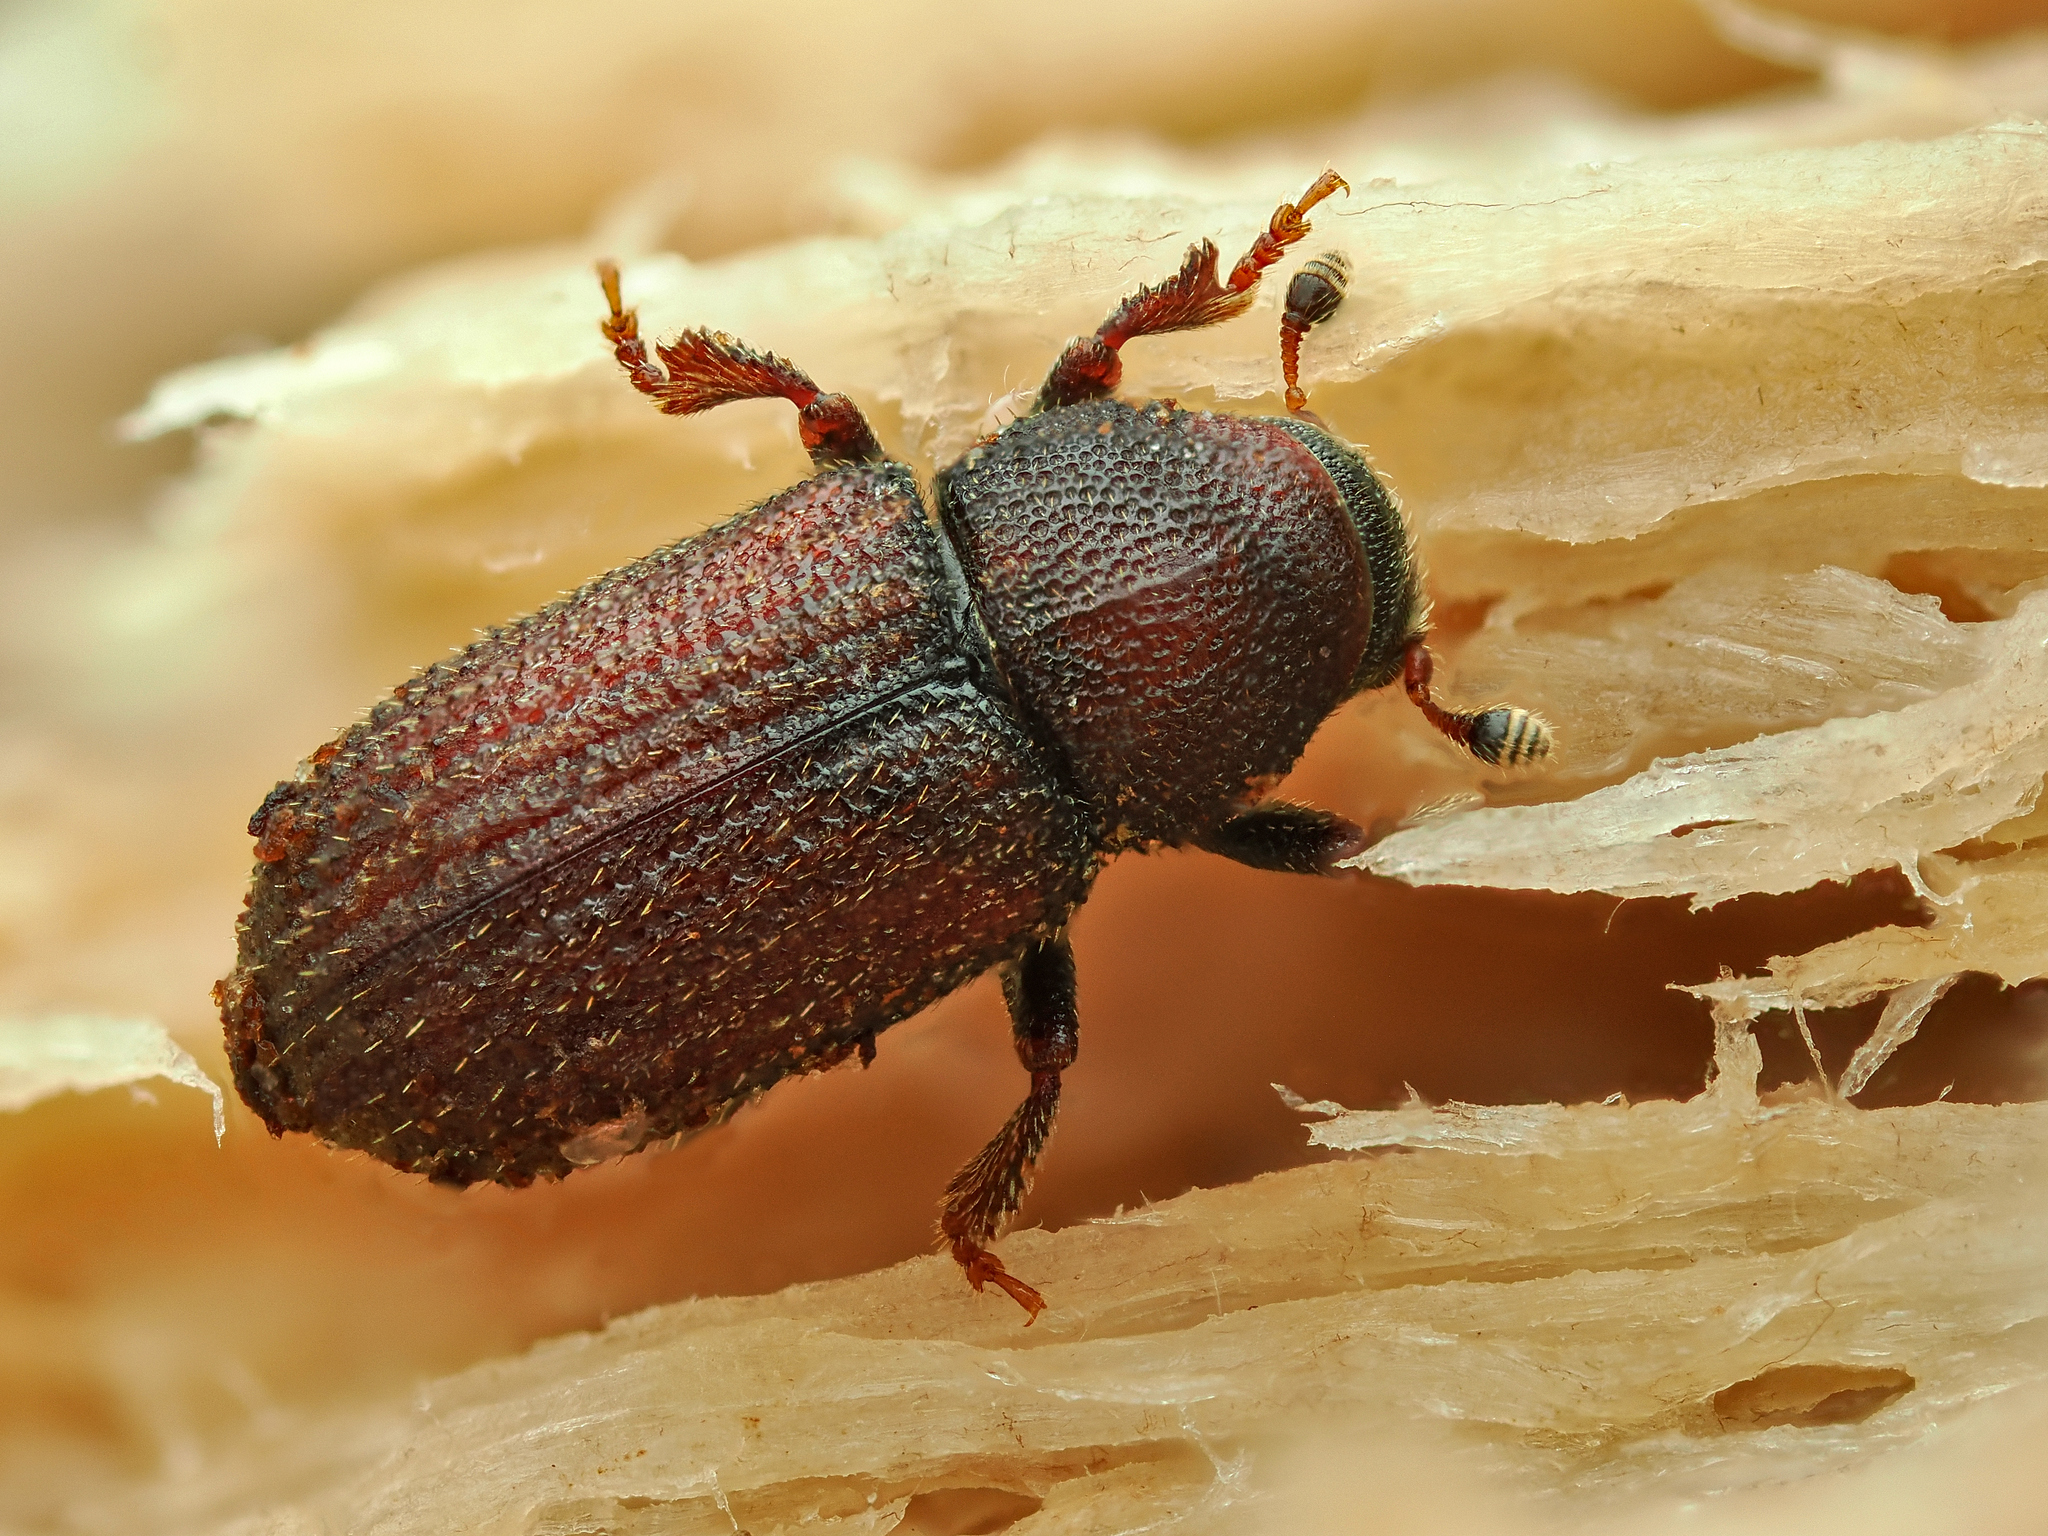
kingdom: Animalia
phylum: Arthropoda
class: Insecta
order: Coleoptera
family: Curculionidae
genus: Hylurgops
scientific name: Hylurgops palliatus
